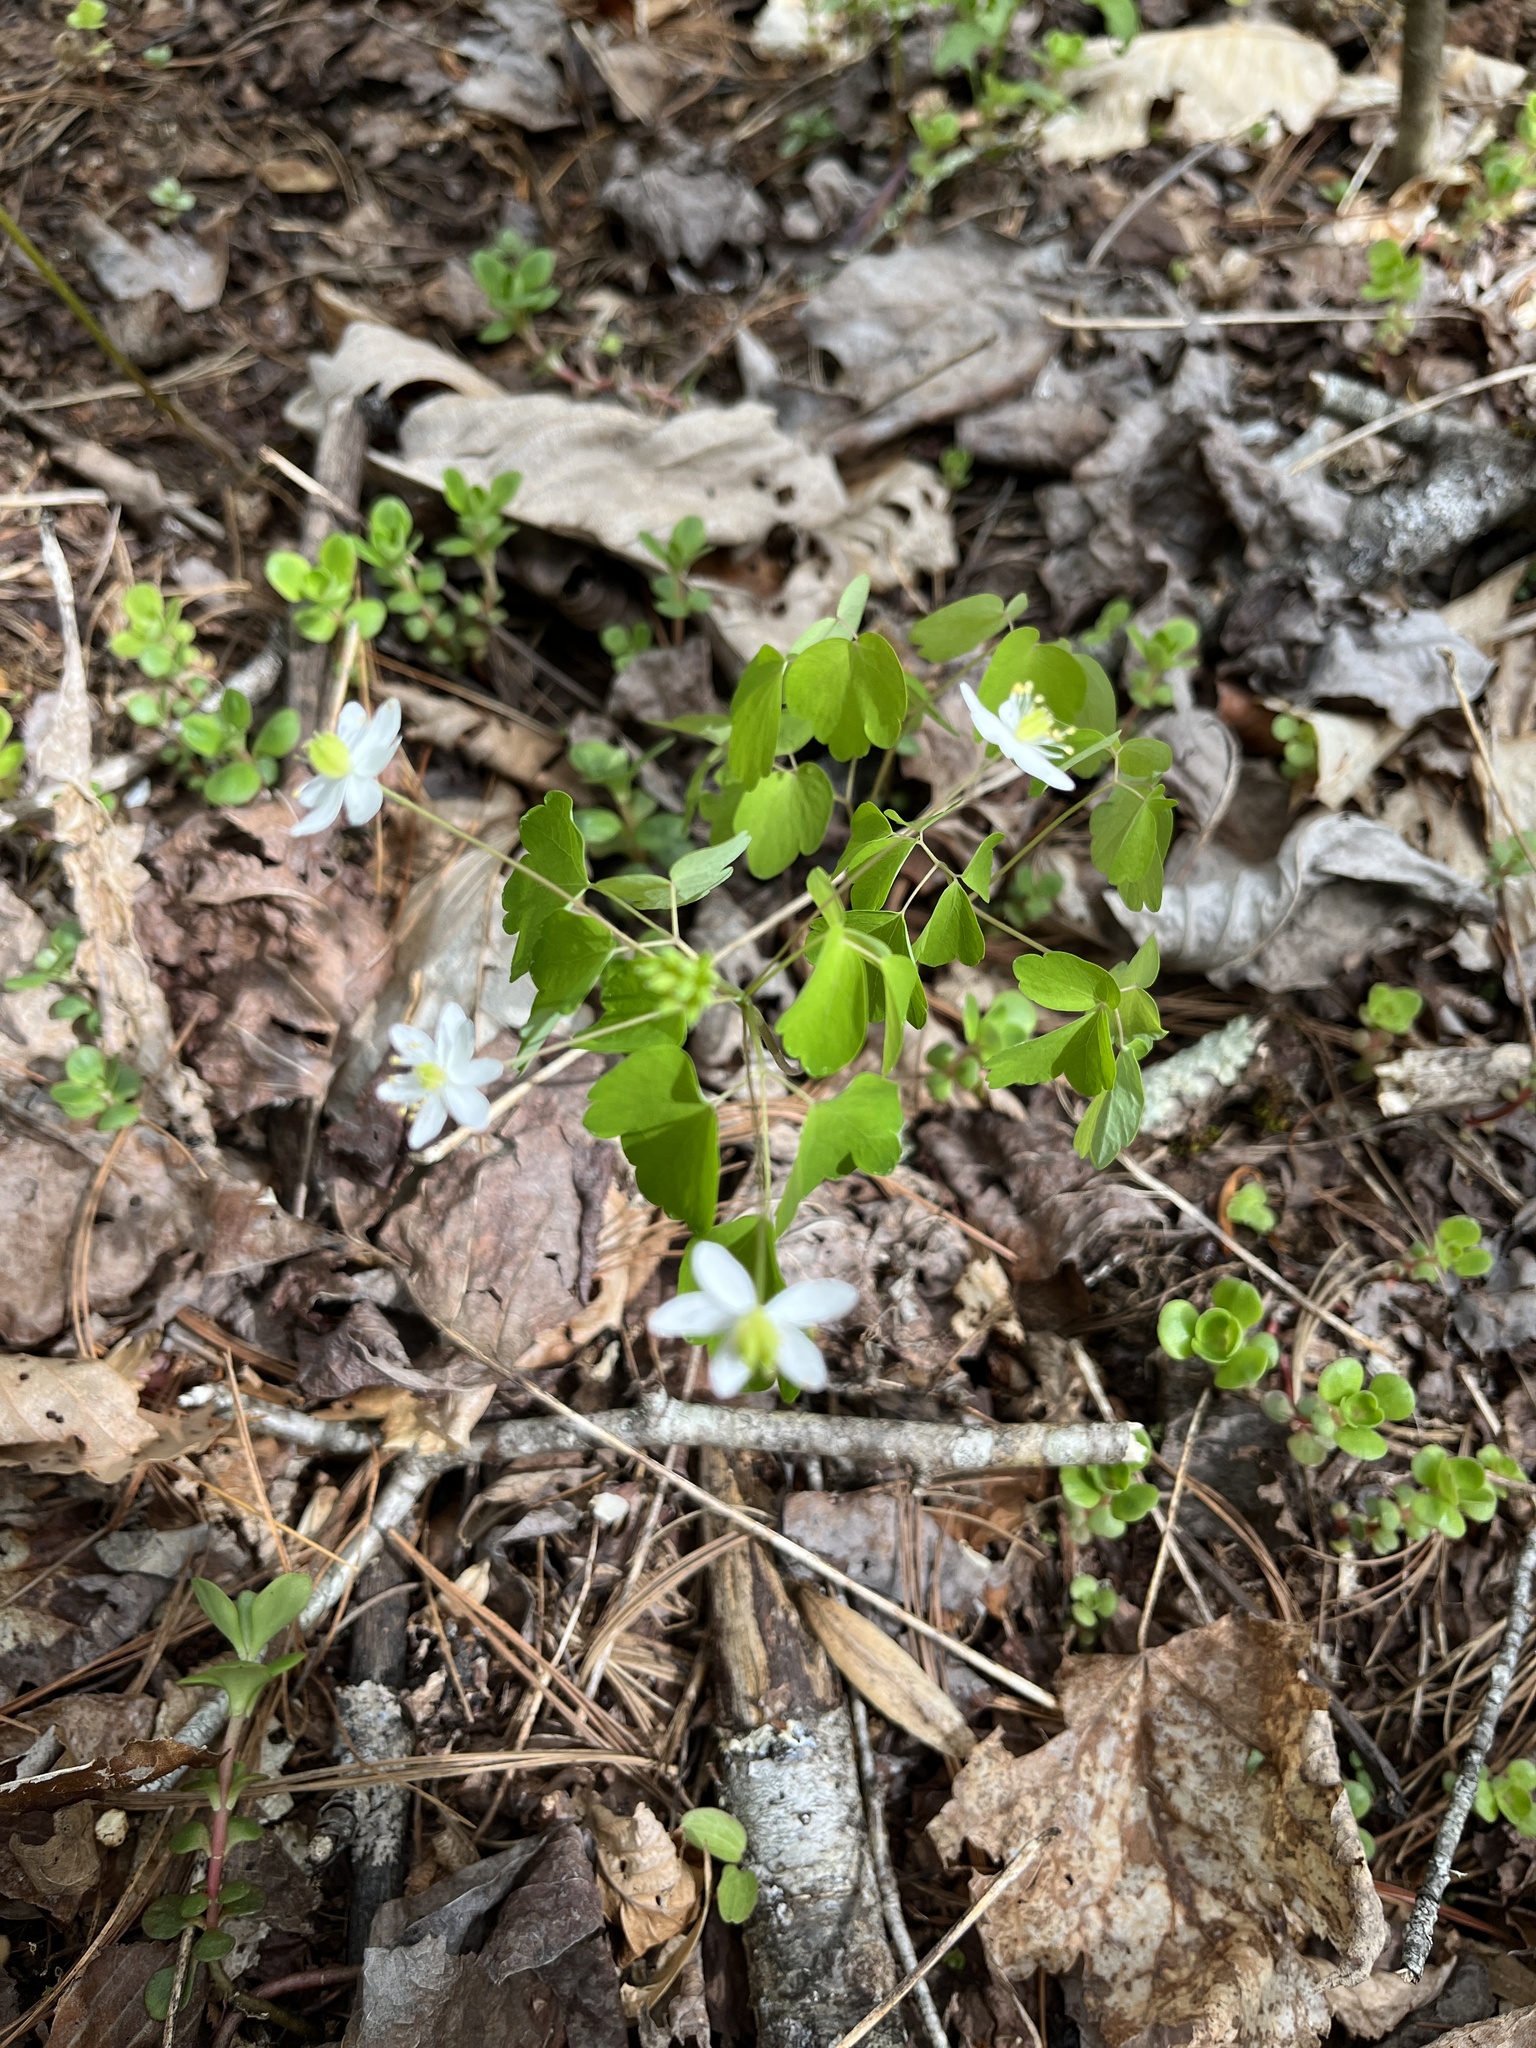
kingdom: Plantae
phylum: Tracheophyta
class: Magnoliopsida
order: Ranunculales
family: Ranunculaceae
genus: Thalictrum
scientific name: Thalictrum thalictroides
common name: Rue-anemone
